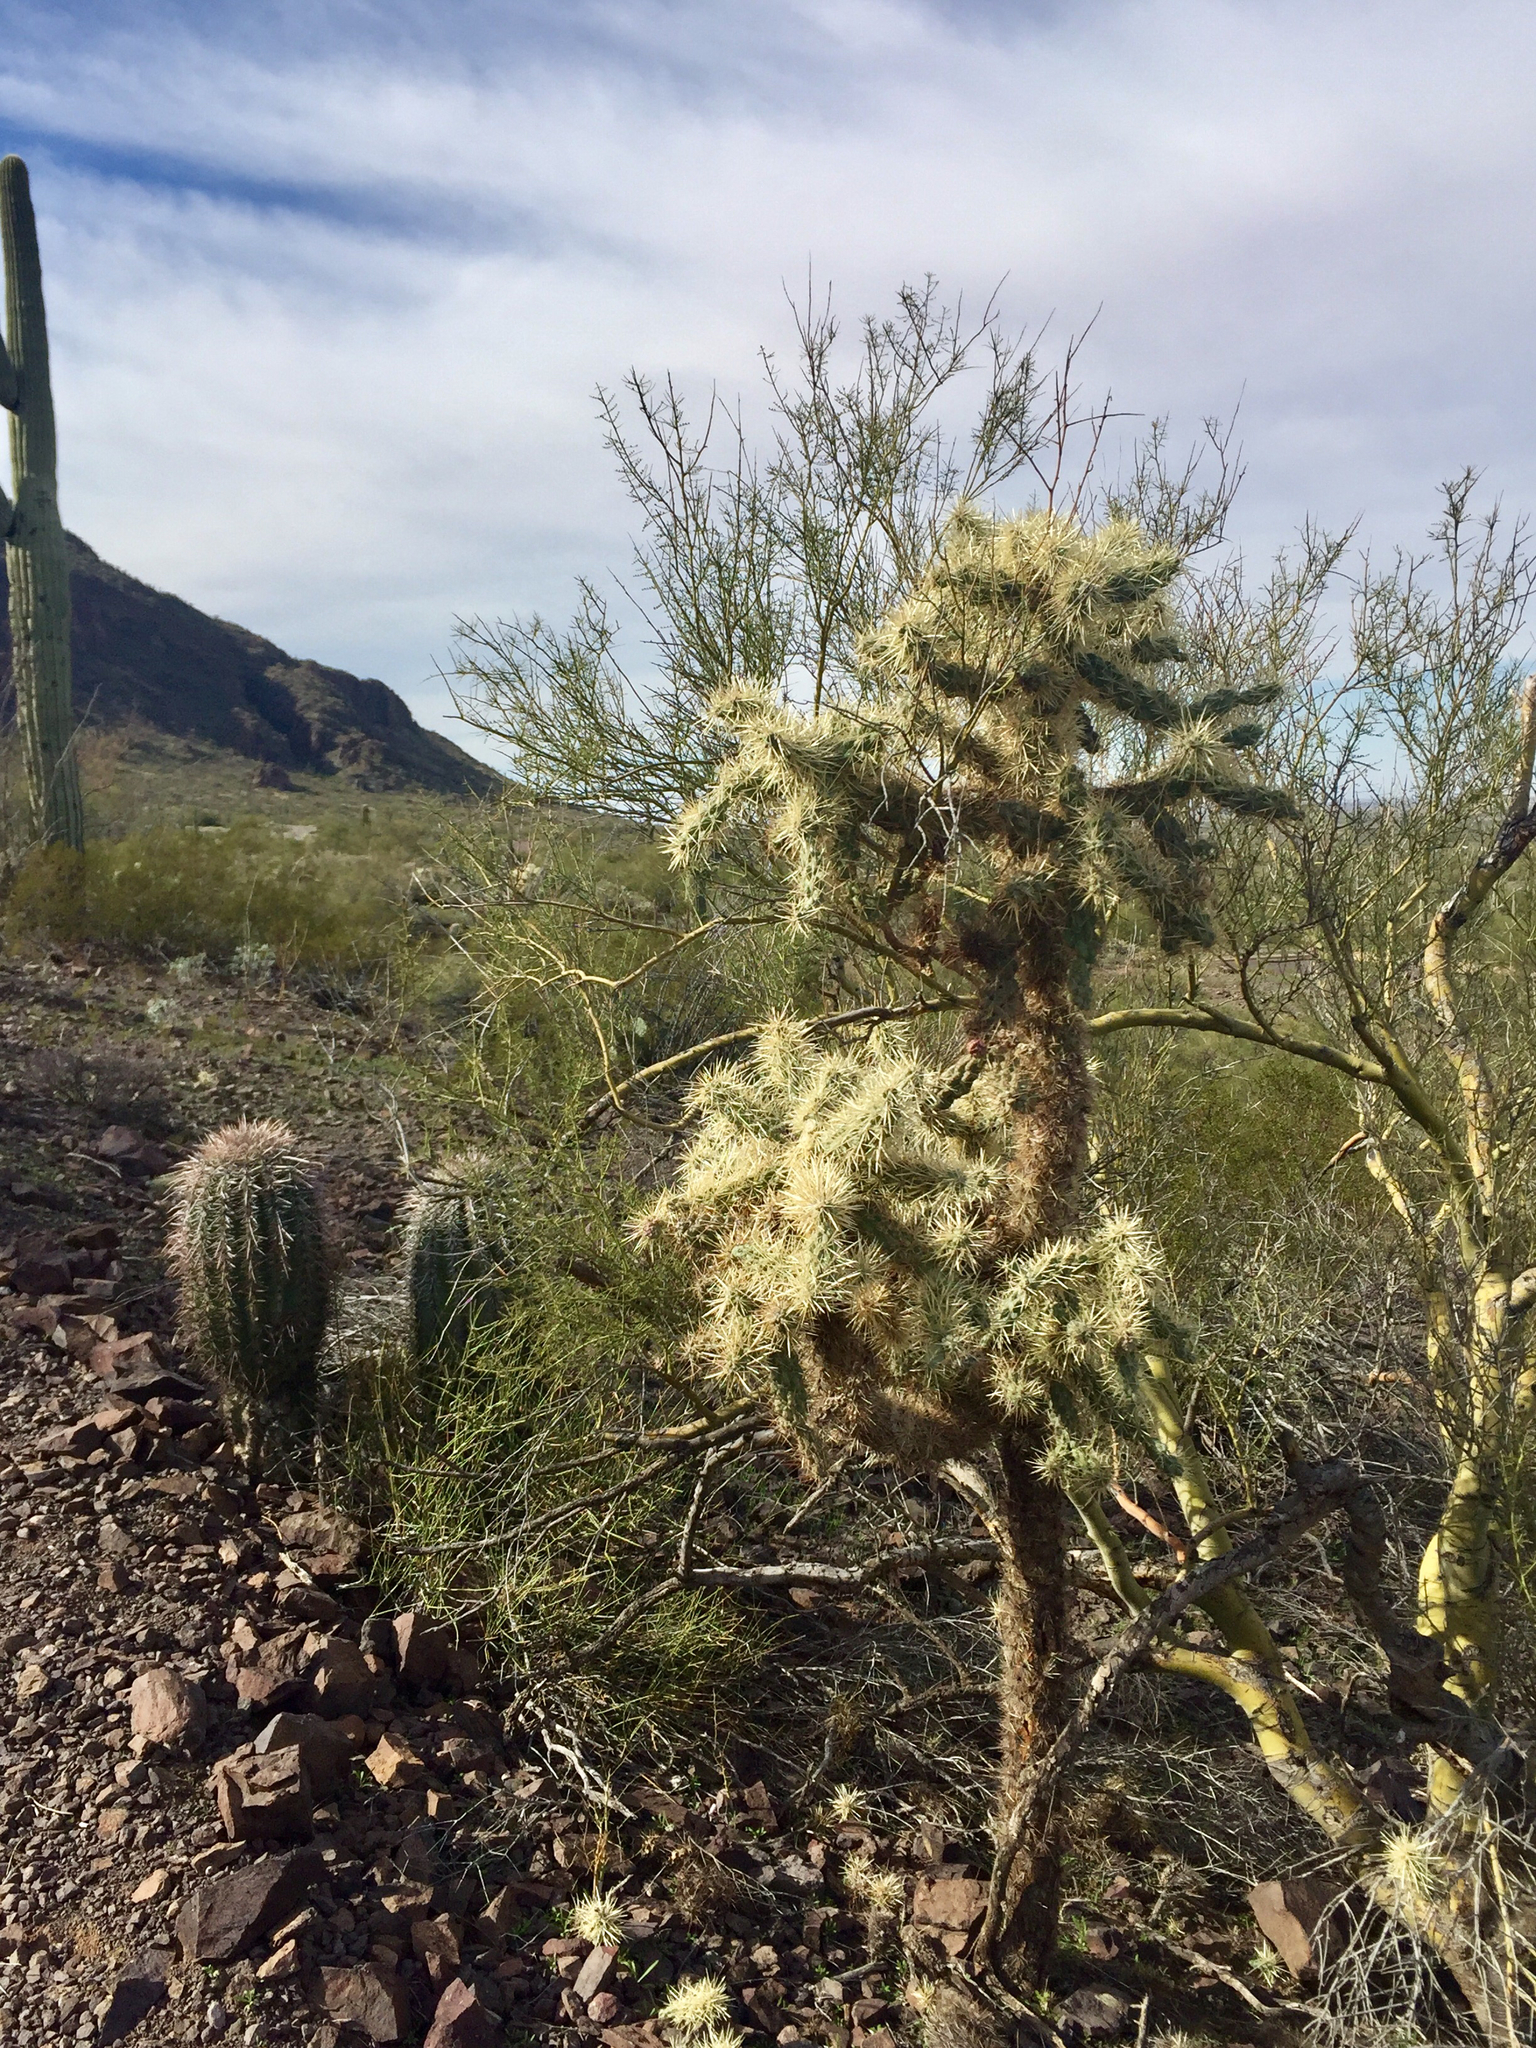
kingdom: Plantae
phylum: Tracheophyta
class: Magnoliopsida
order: Caryophyllales
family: Cactaceae
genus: Cylindropuntia
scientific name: Cylindropuntia fosbergii
